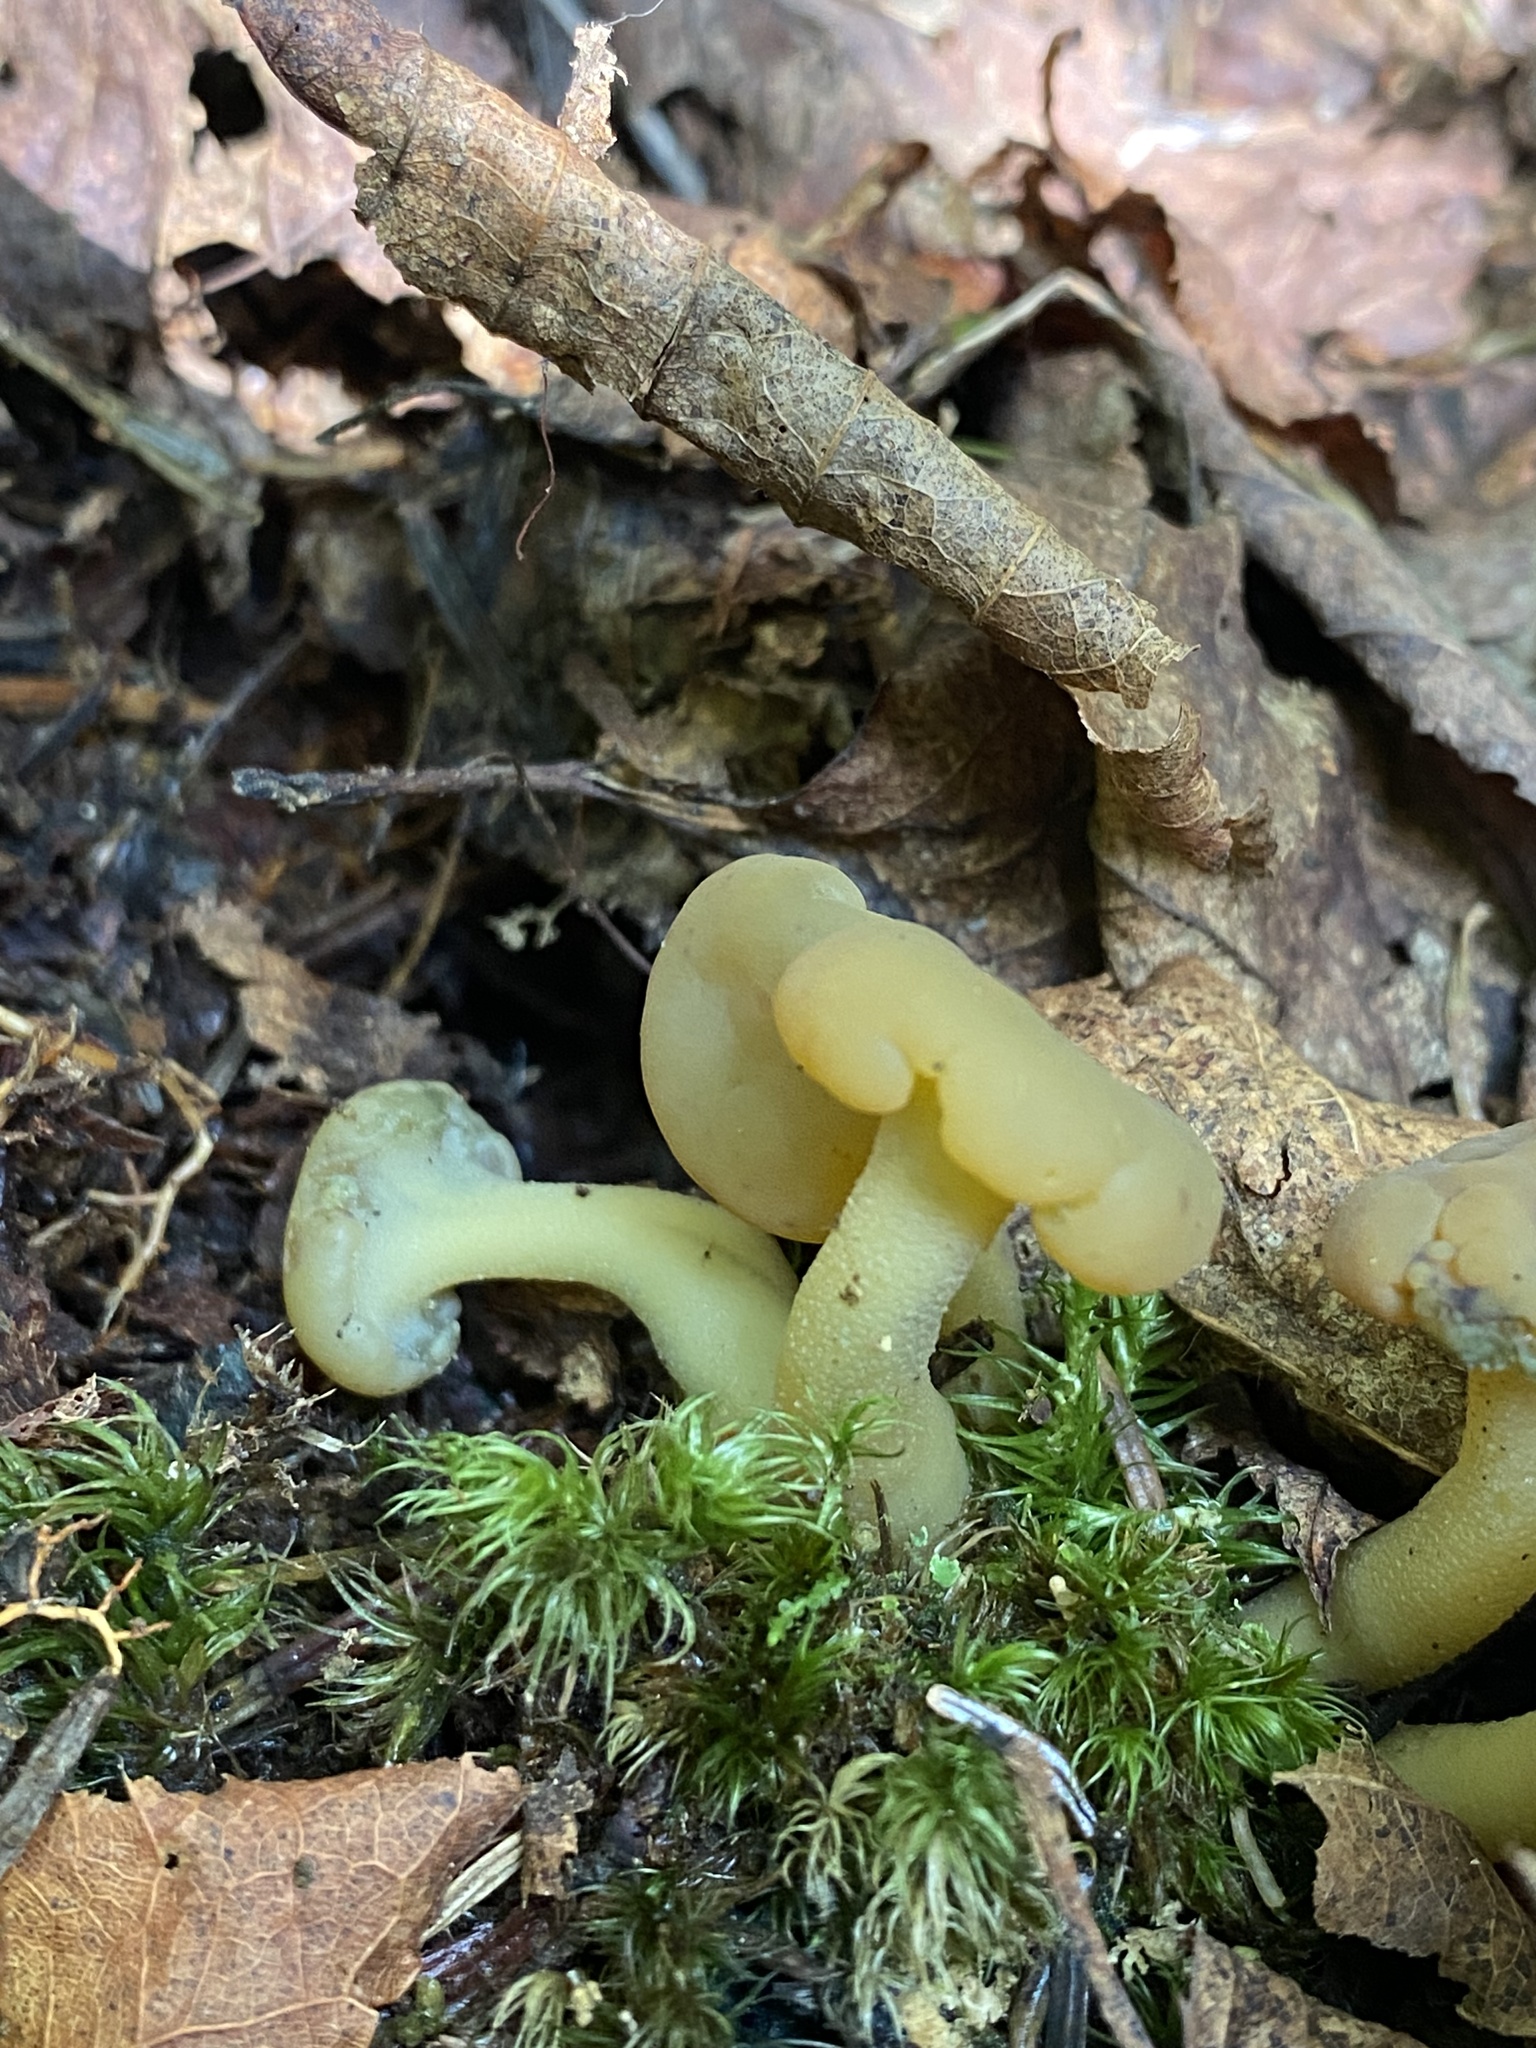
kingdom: Fungi
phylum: Ascomycota
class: Leotiomycetes
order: Leotiales
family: Leotiaceae
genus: Leotia
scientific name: Leotia lubrica
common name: Jellybaby
